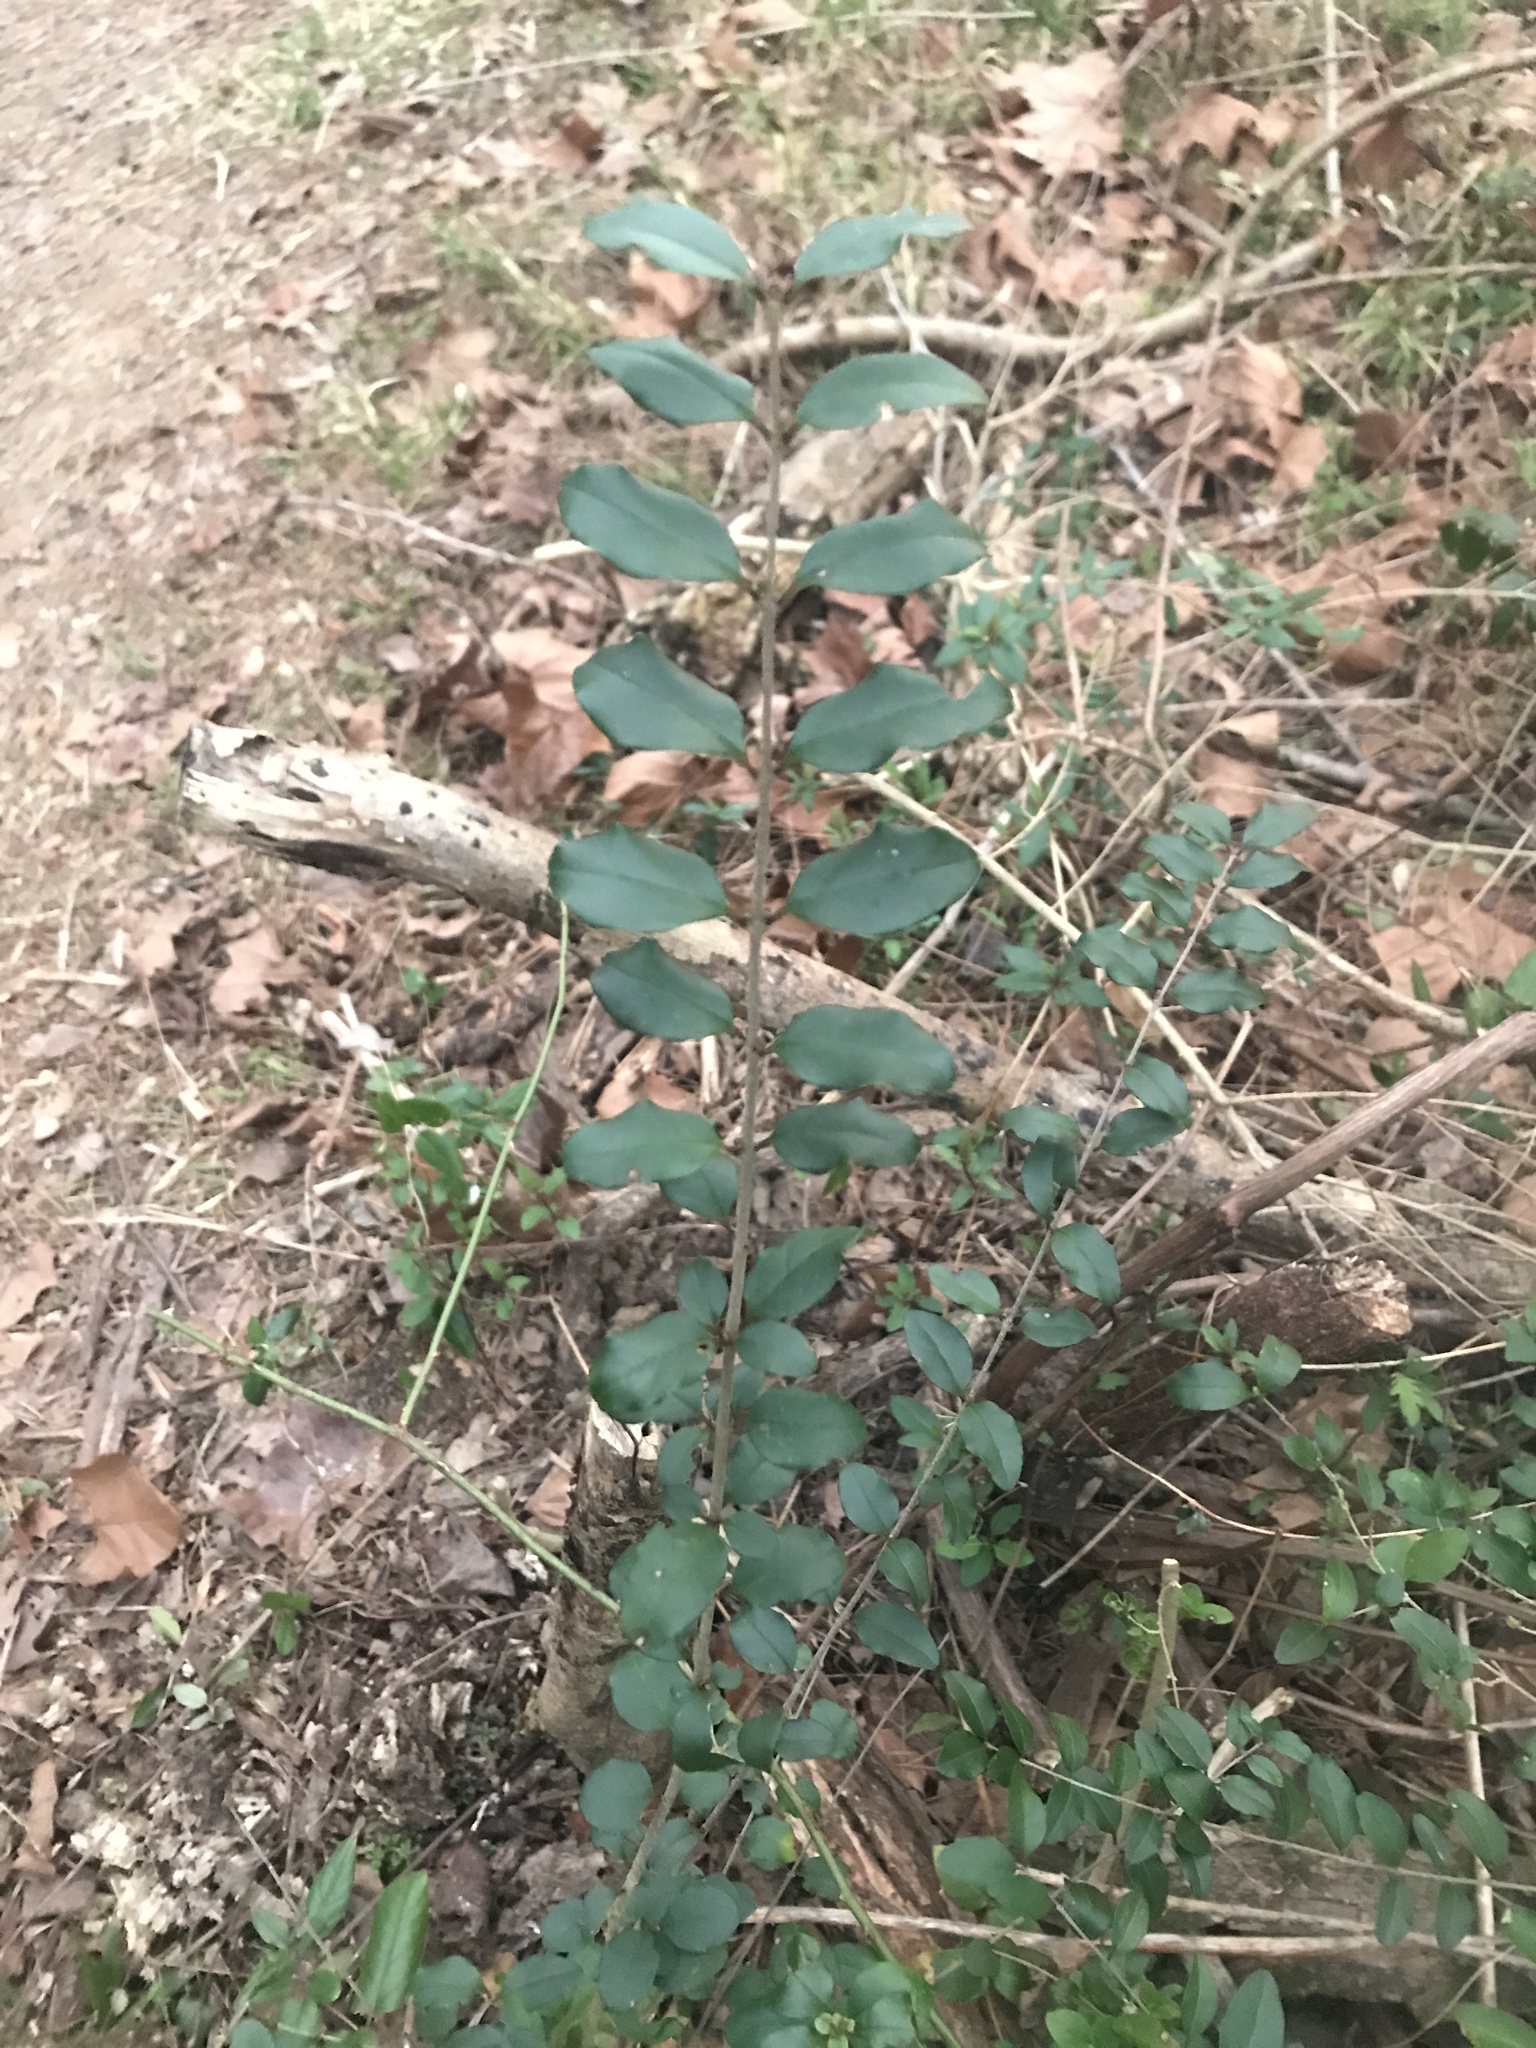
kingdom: Plantae
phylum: Tracheophyta
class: Magnoliopsida
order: Lamiales
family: Oleaceae
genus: Ligustrum
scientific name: Ligustrum sinense
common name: Chinese privet
